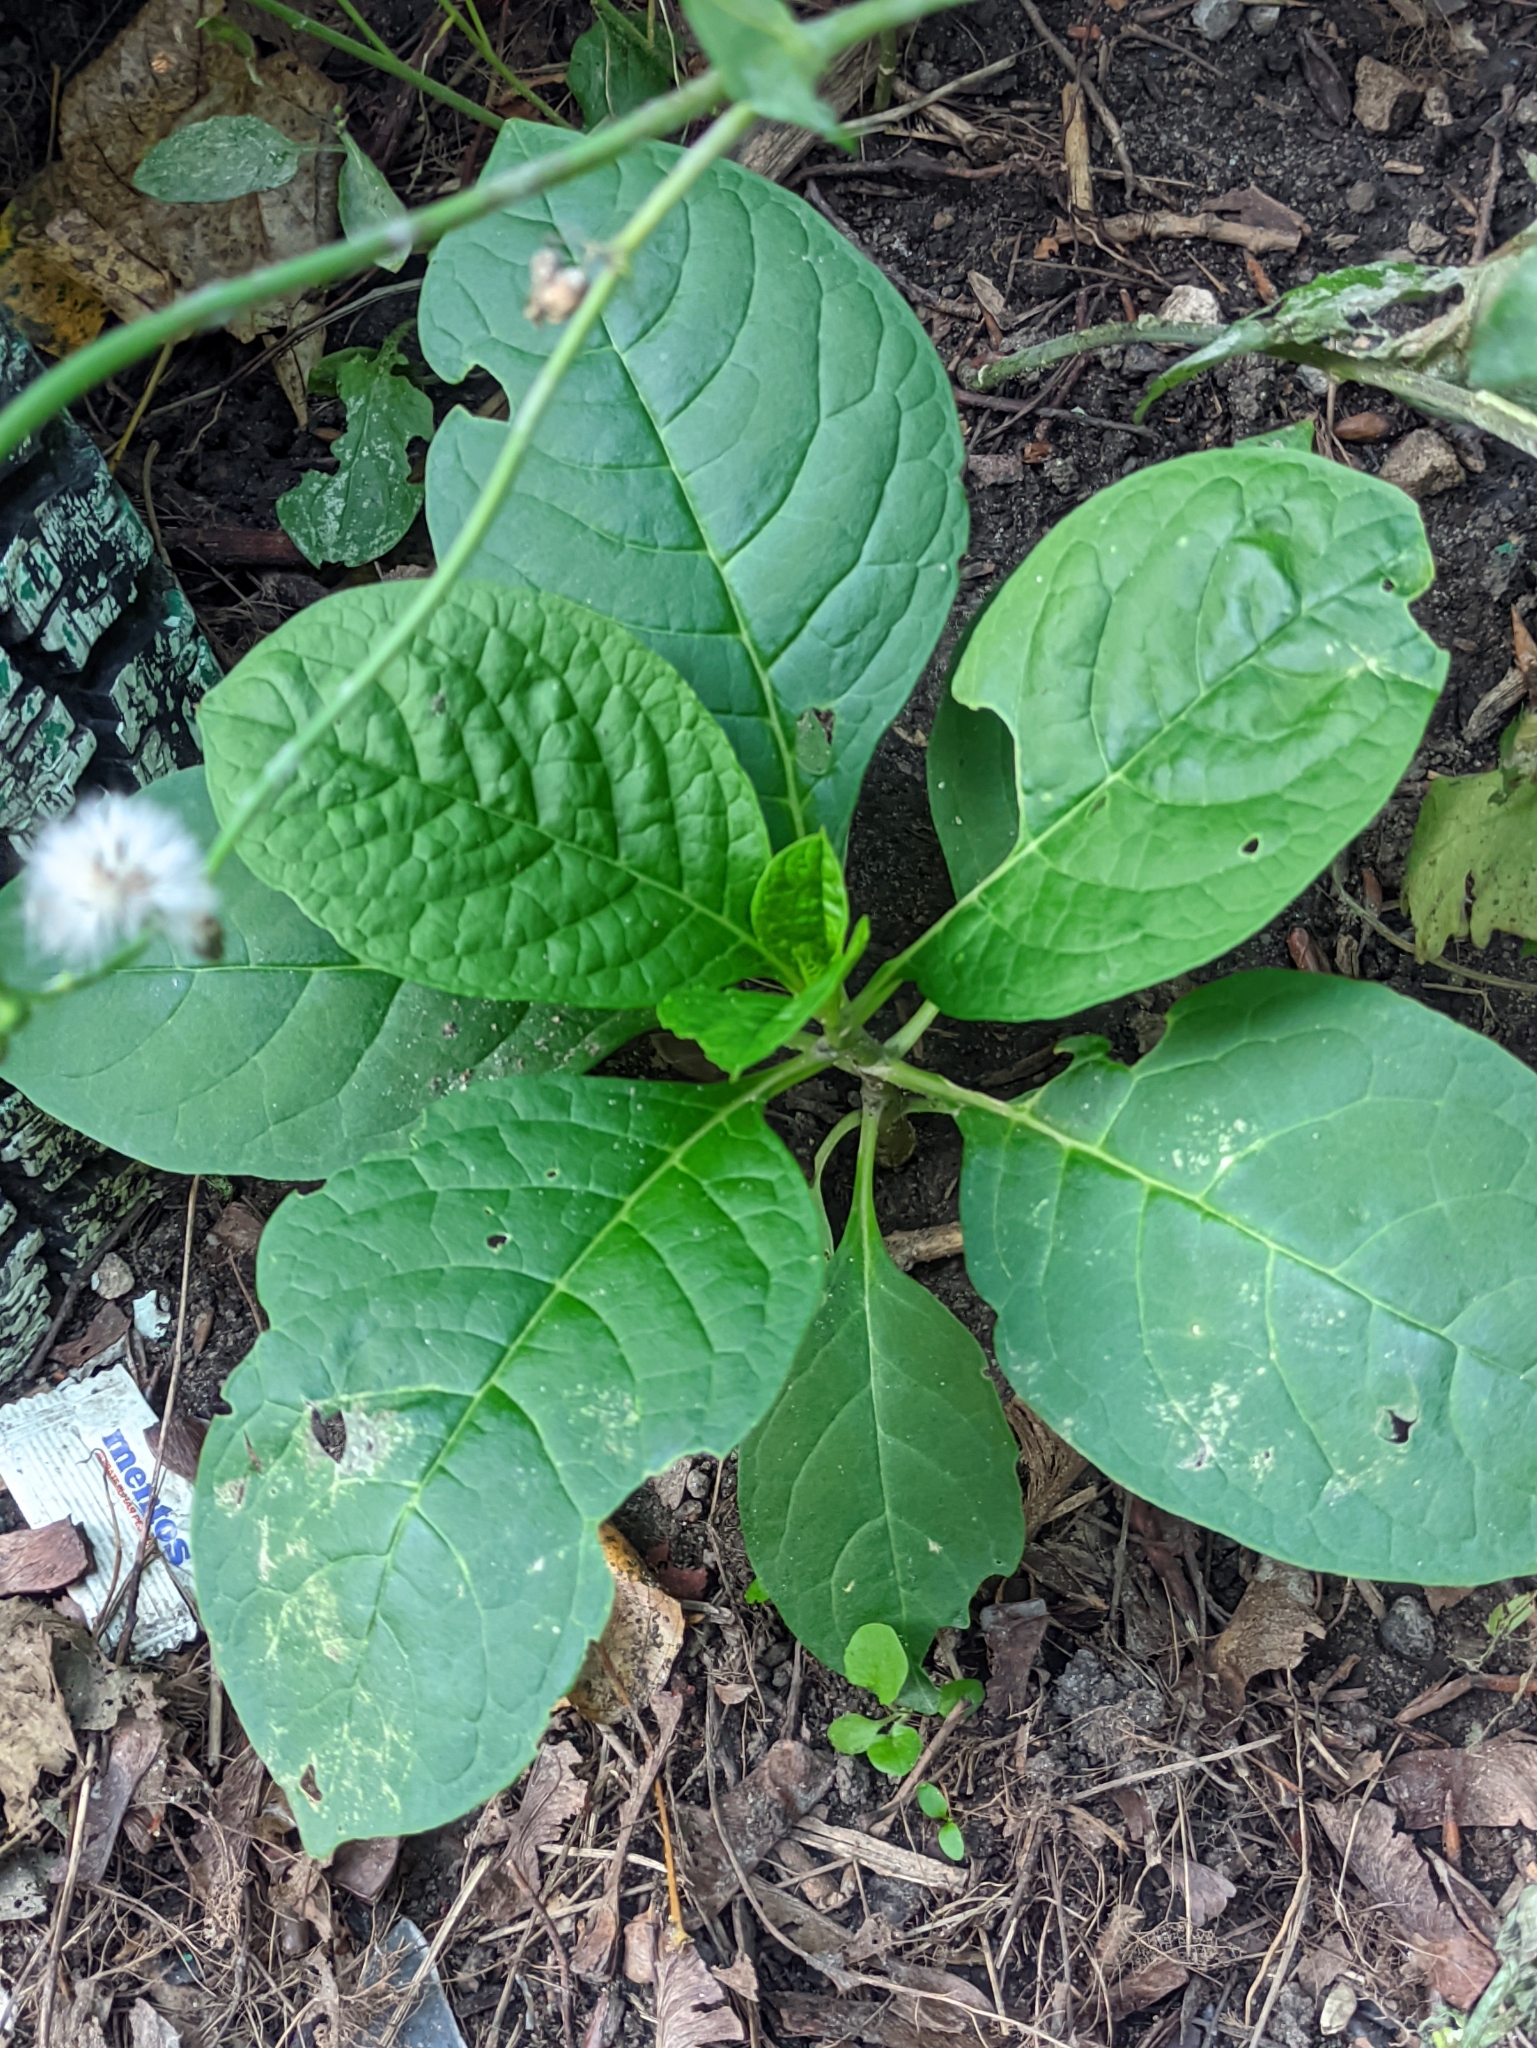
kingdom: Plantae
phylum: Tracheophyta
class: Magnoliopsida
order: Caryophyllales
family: Phytolaccaceae
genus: Phytolacca
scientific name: Phytolacca acinosa
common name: Indian pokeweed
